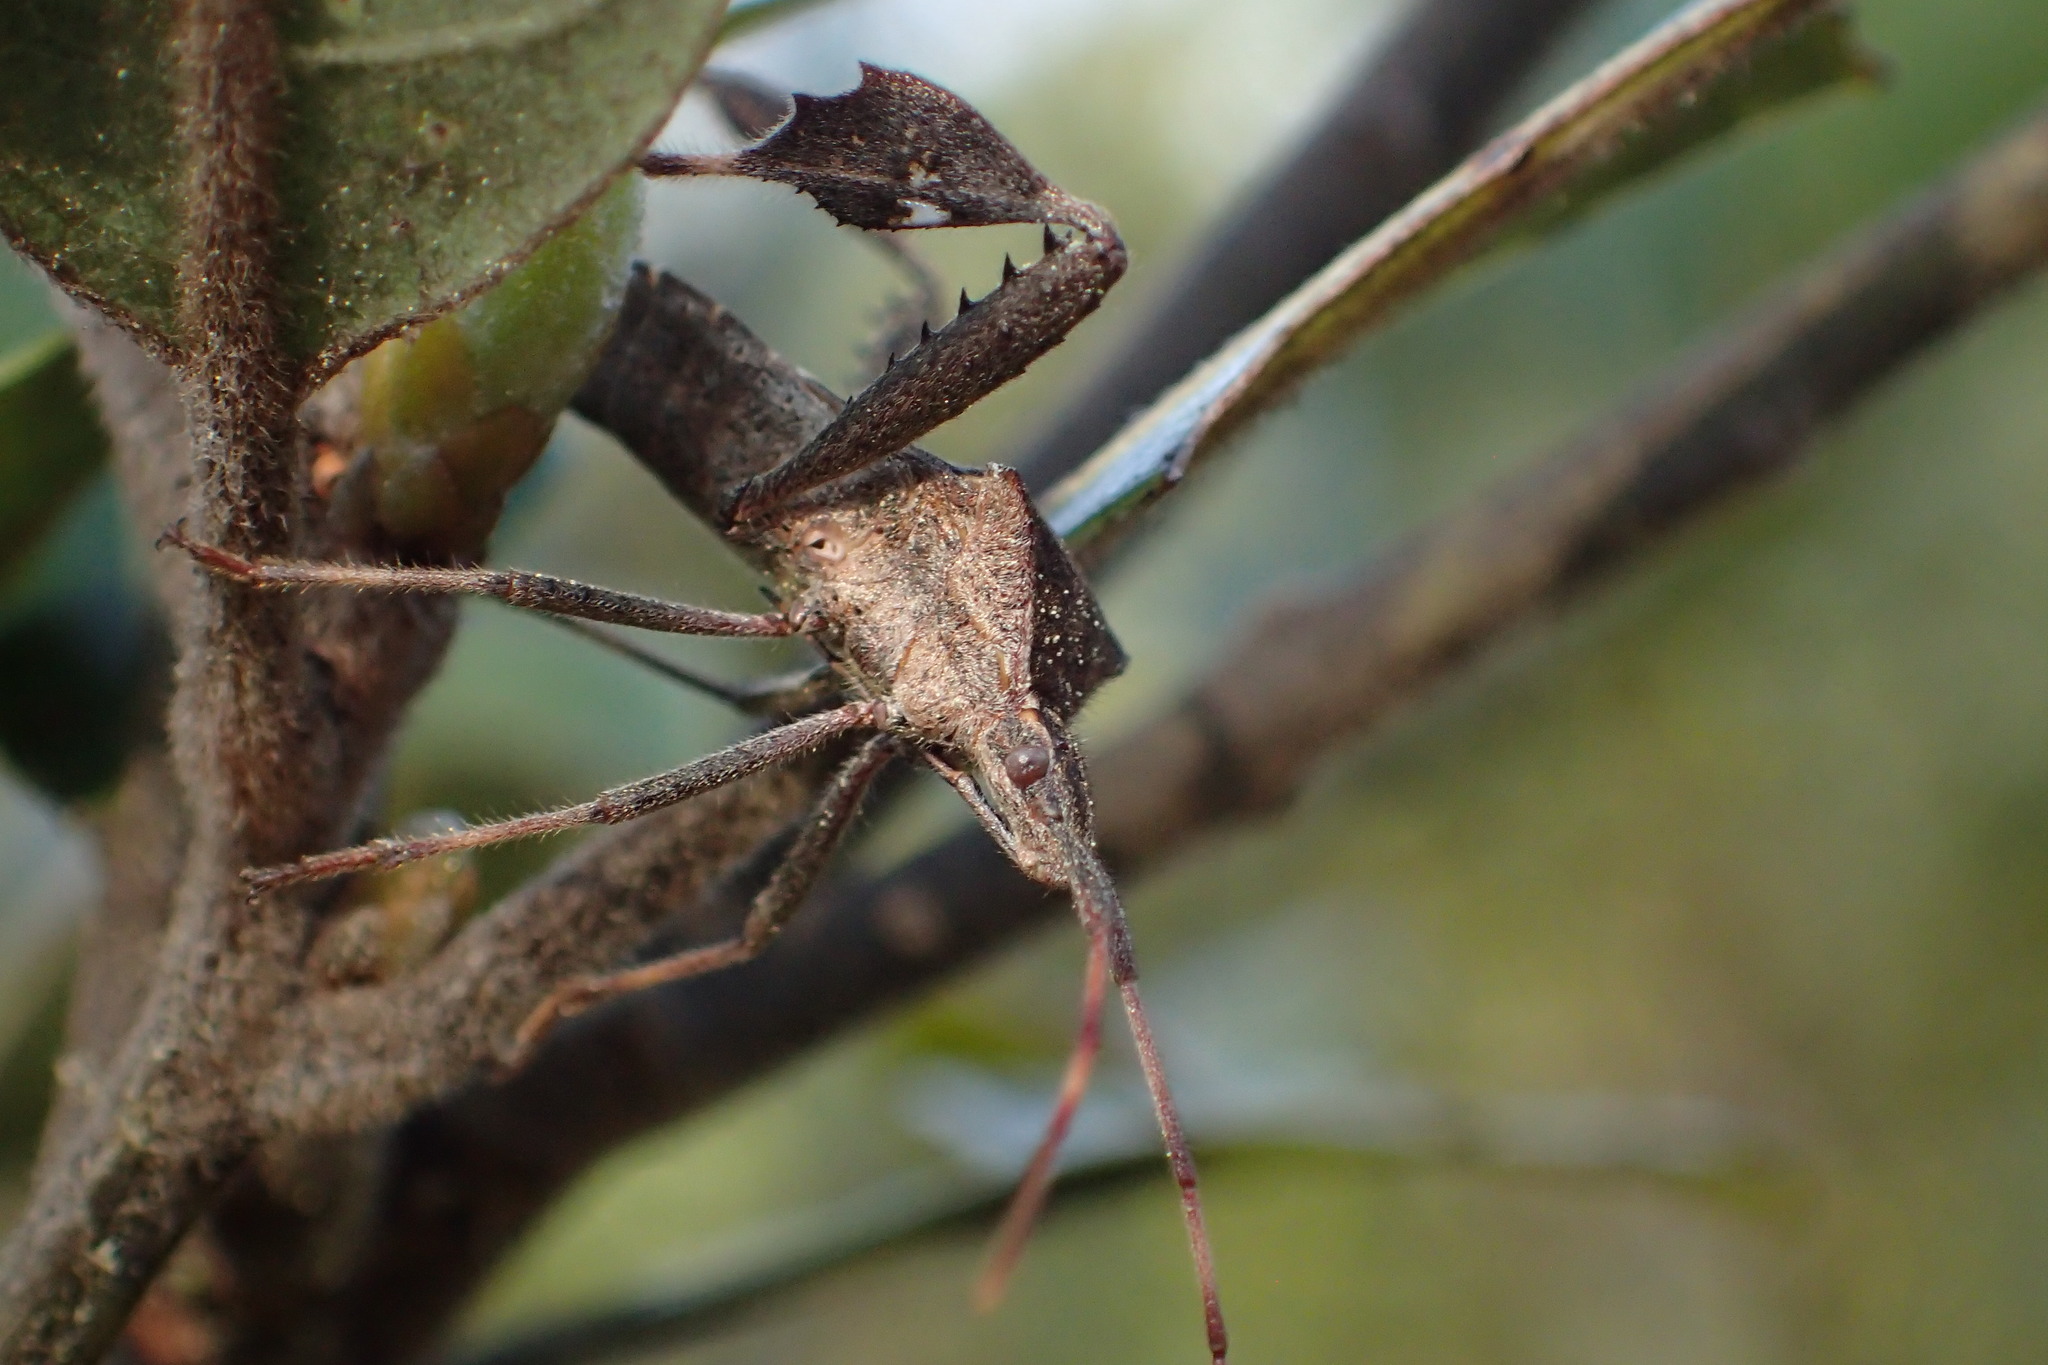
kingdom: Animalia
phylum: Arthropoda
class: Insecta
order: Hemiptera
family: Coreidae
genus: Leptoglossus
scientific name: Leptoglossus phyllopus
